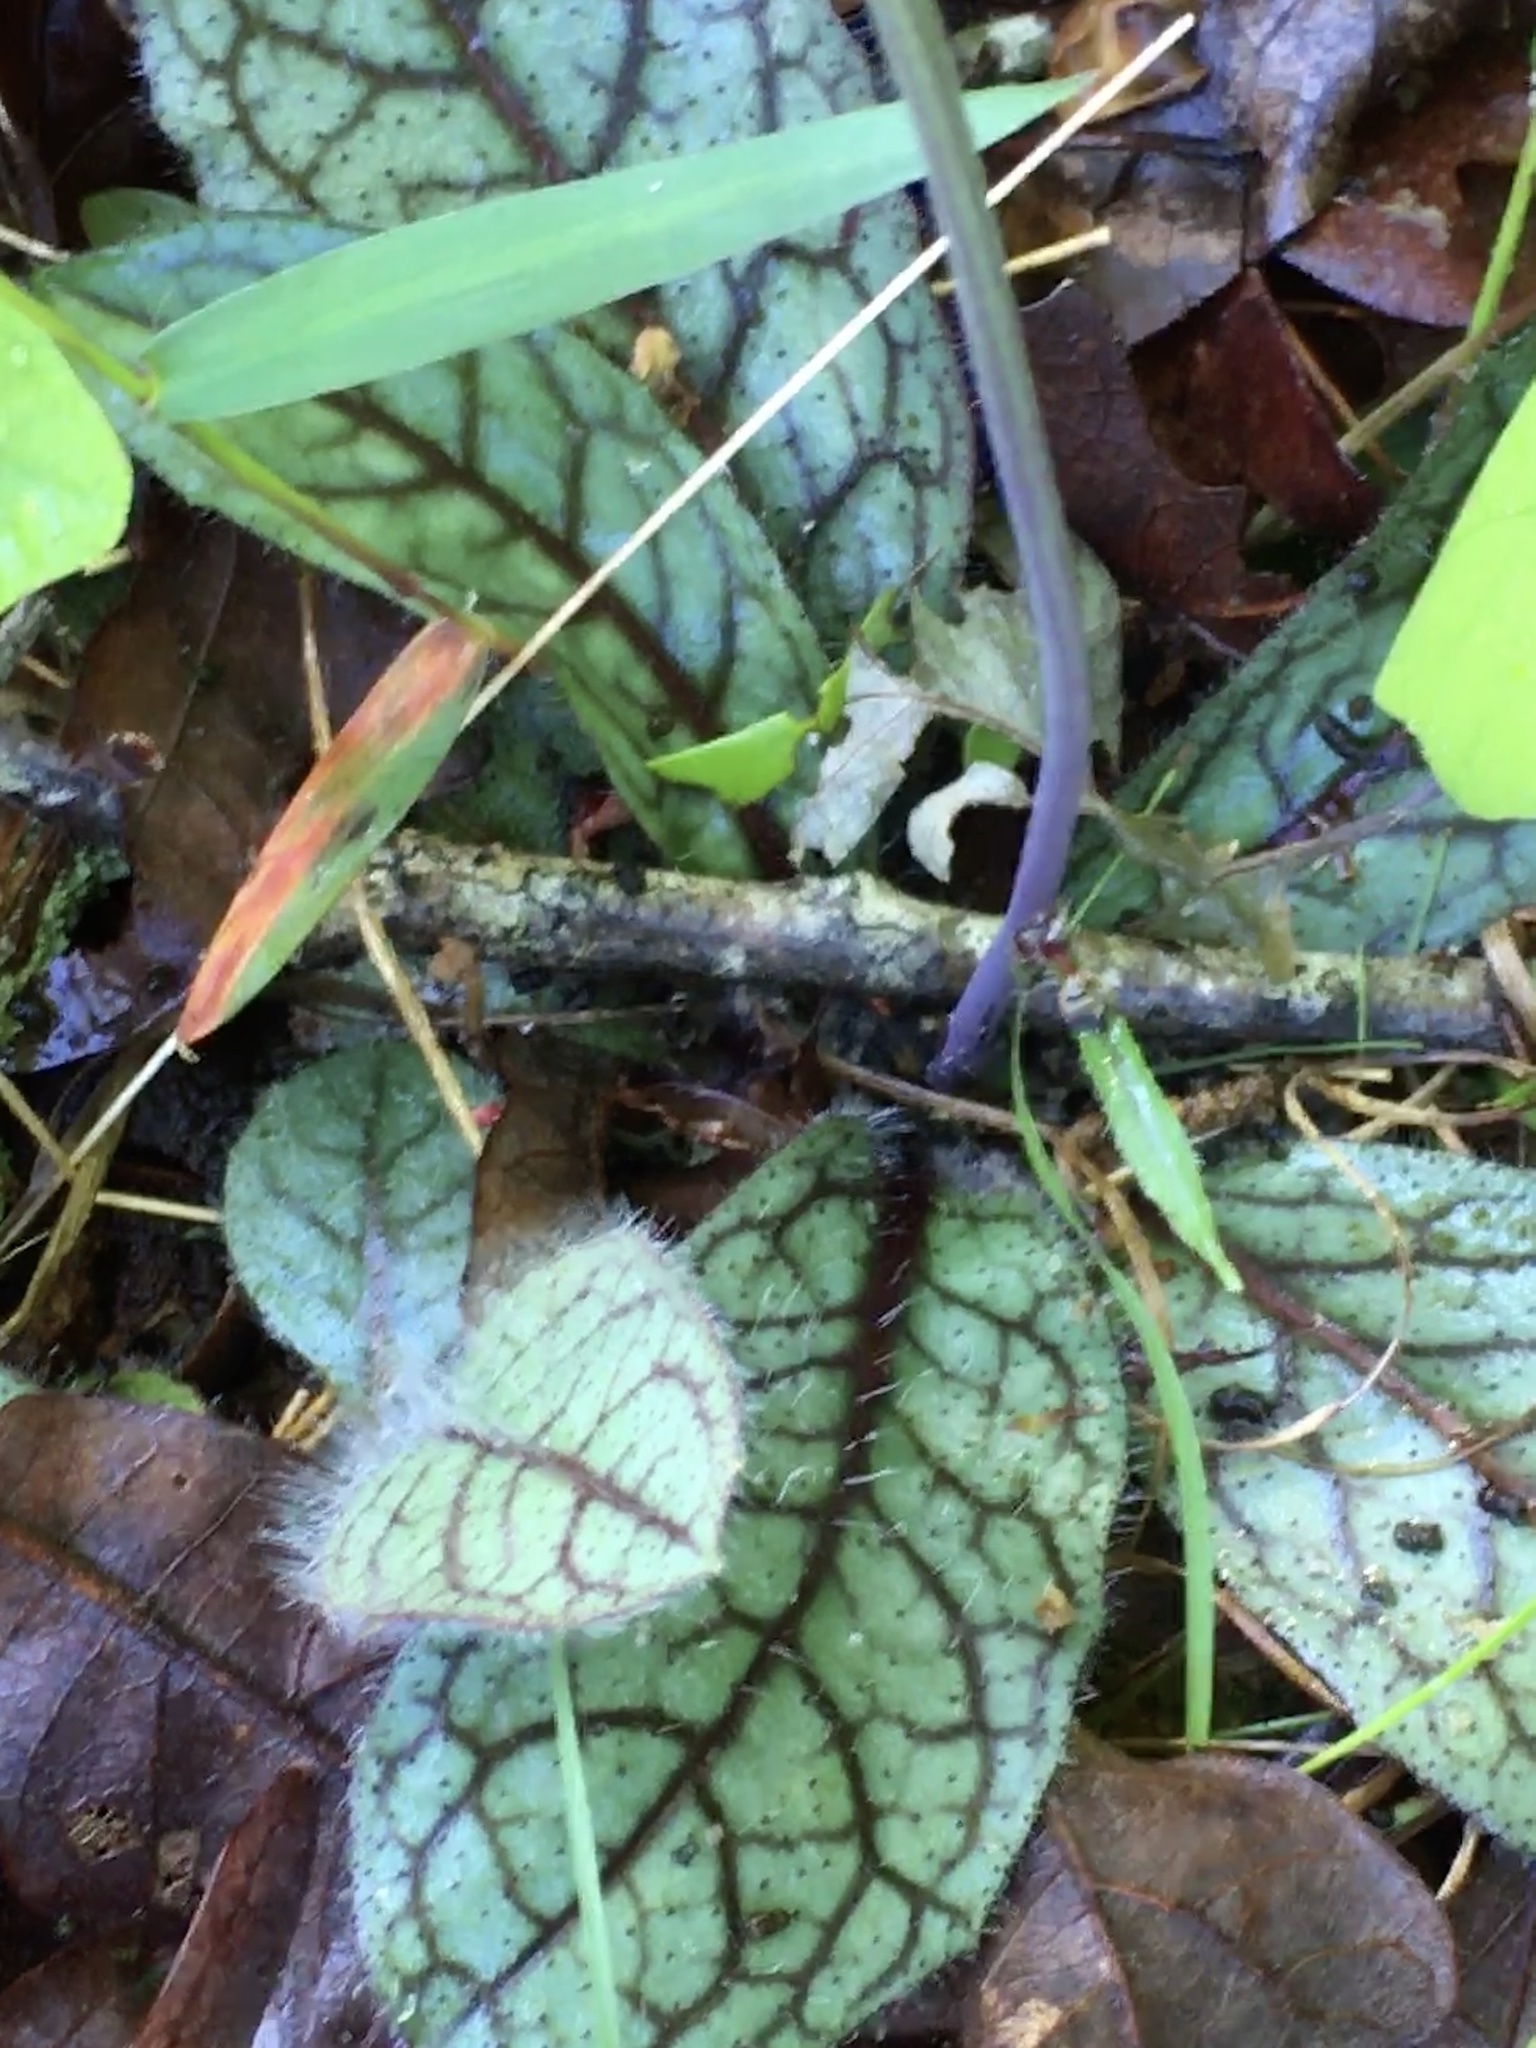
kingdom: Plantae
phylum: Tracheophyta
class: Magnoliopsida
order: Asterales
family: Asteraceae
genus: Hieracium
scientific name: Hieracium venosum
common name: Rattlesnake hawkweed
